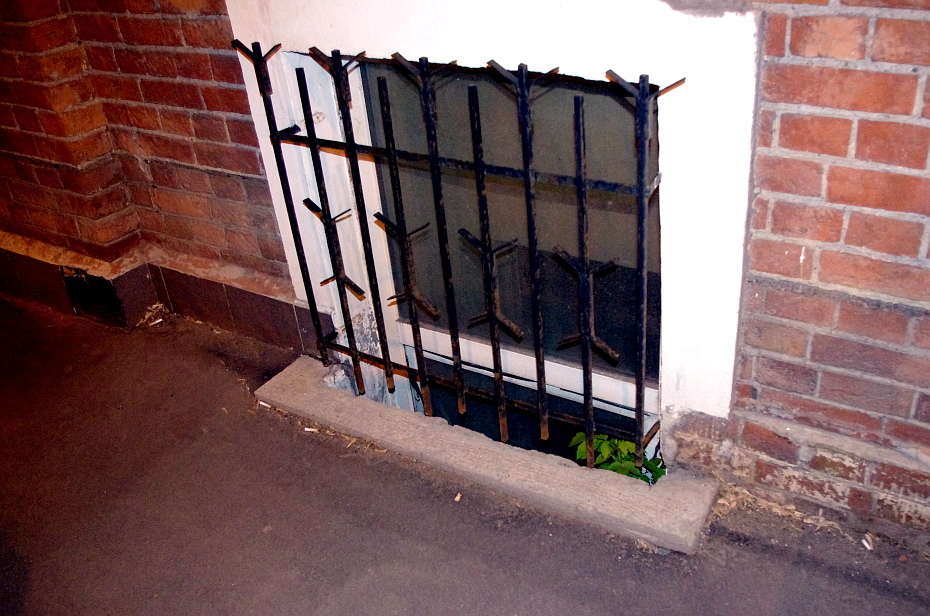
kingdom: Plantae
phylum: Tracheophyta
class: Magnoliopsida
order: Sapindales
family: Sapindaceae
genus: Acer
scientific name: Acer negundo
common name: Ashleaf maple
